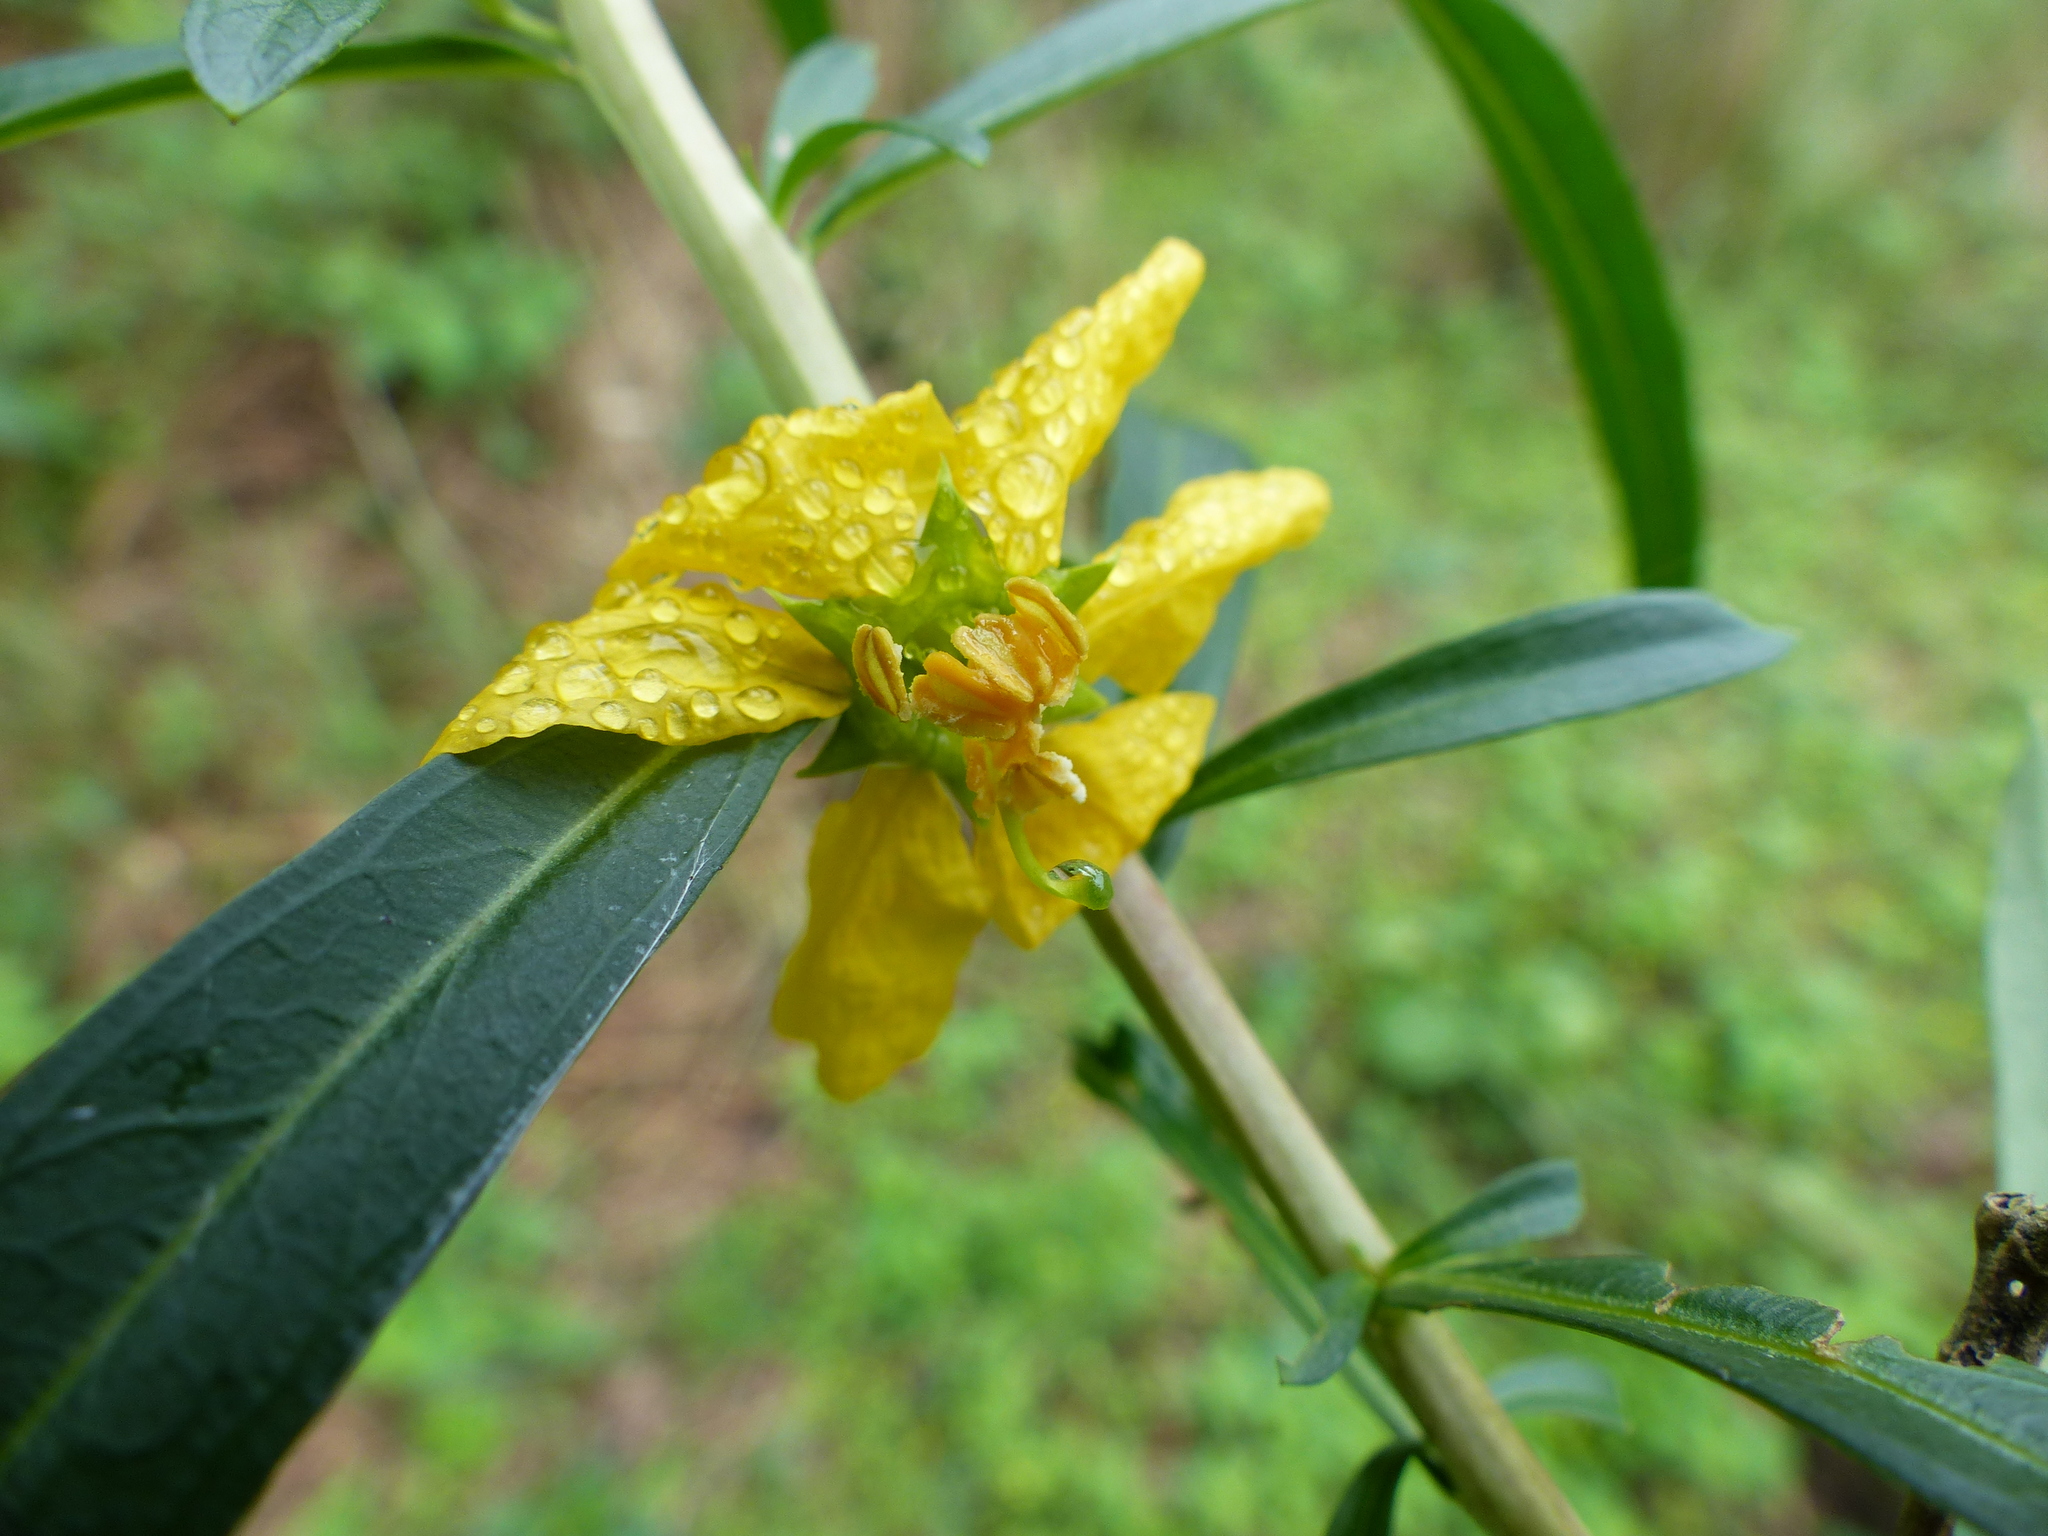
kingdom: Plantae
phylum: Tracheophyta
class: Magnoliopsida
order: Myrtales
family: Lythraceae
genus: Heimia
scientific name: Heimia salicifolia
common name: Willow-leaf heimia
